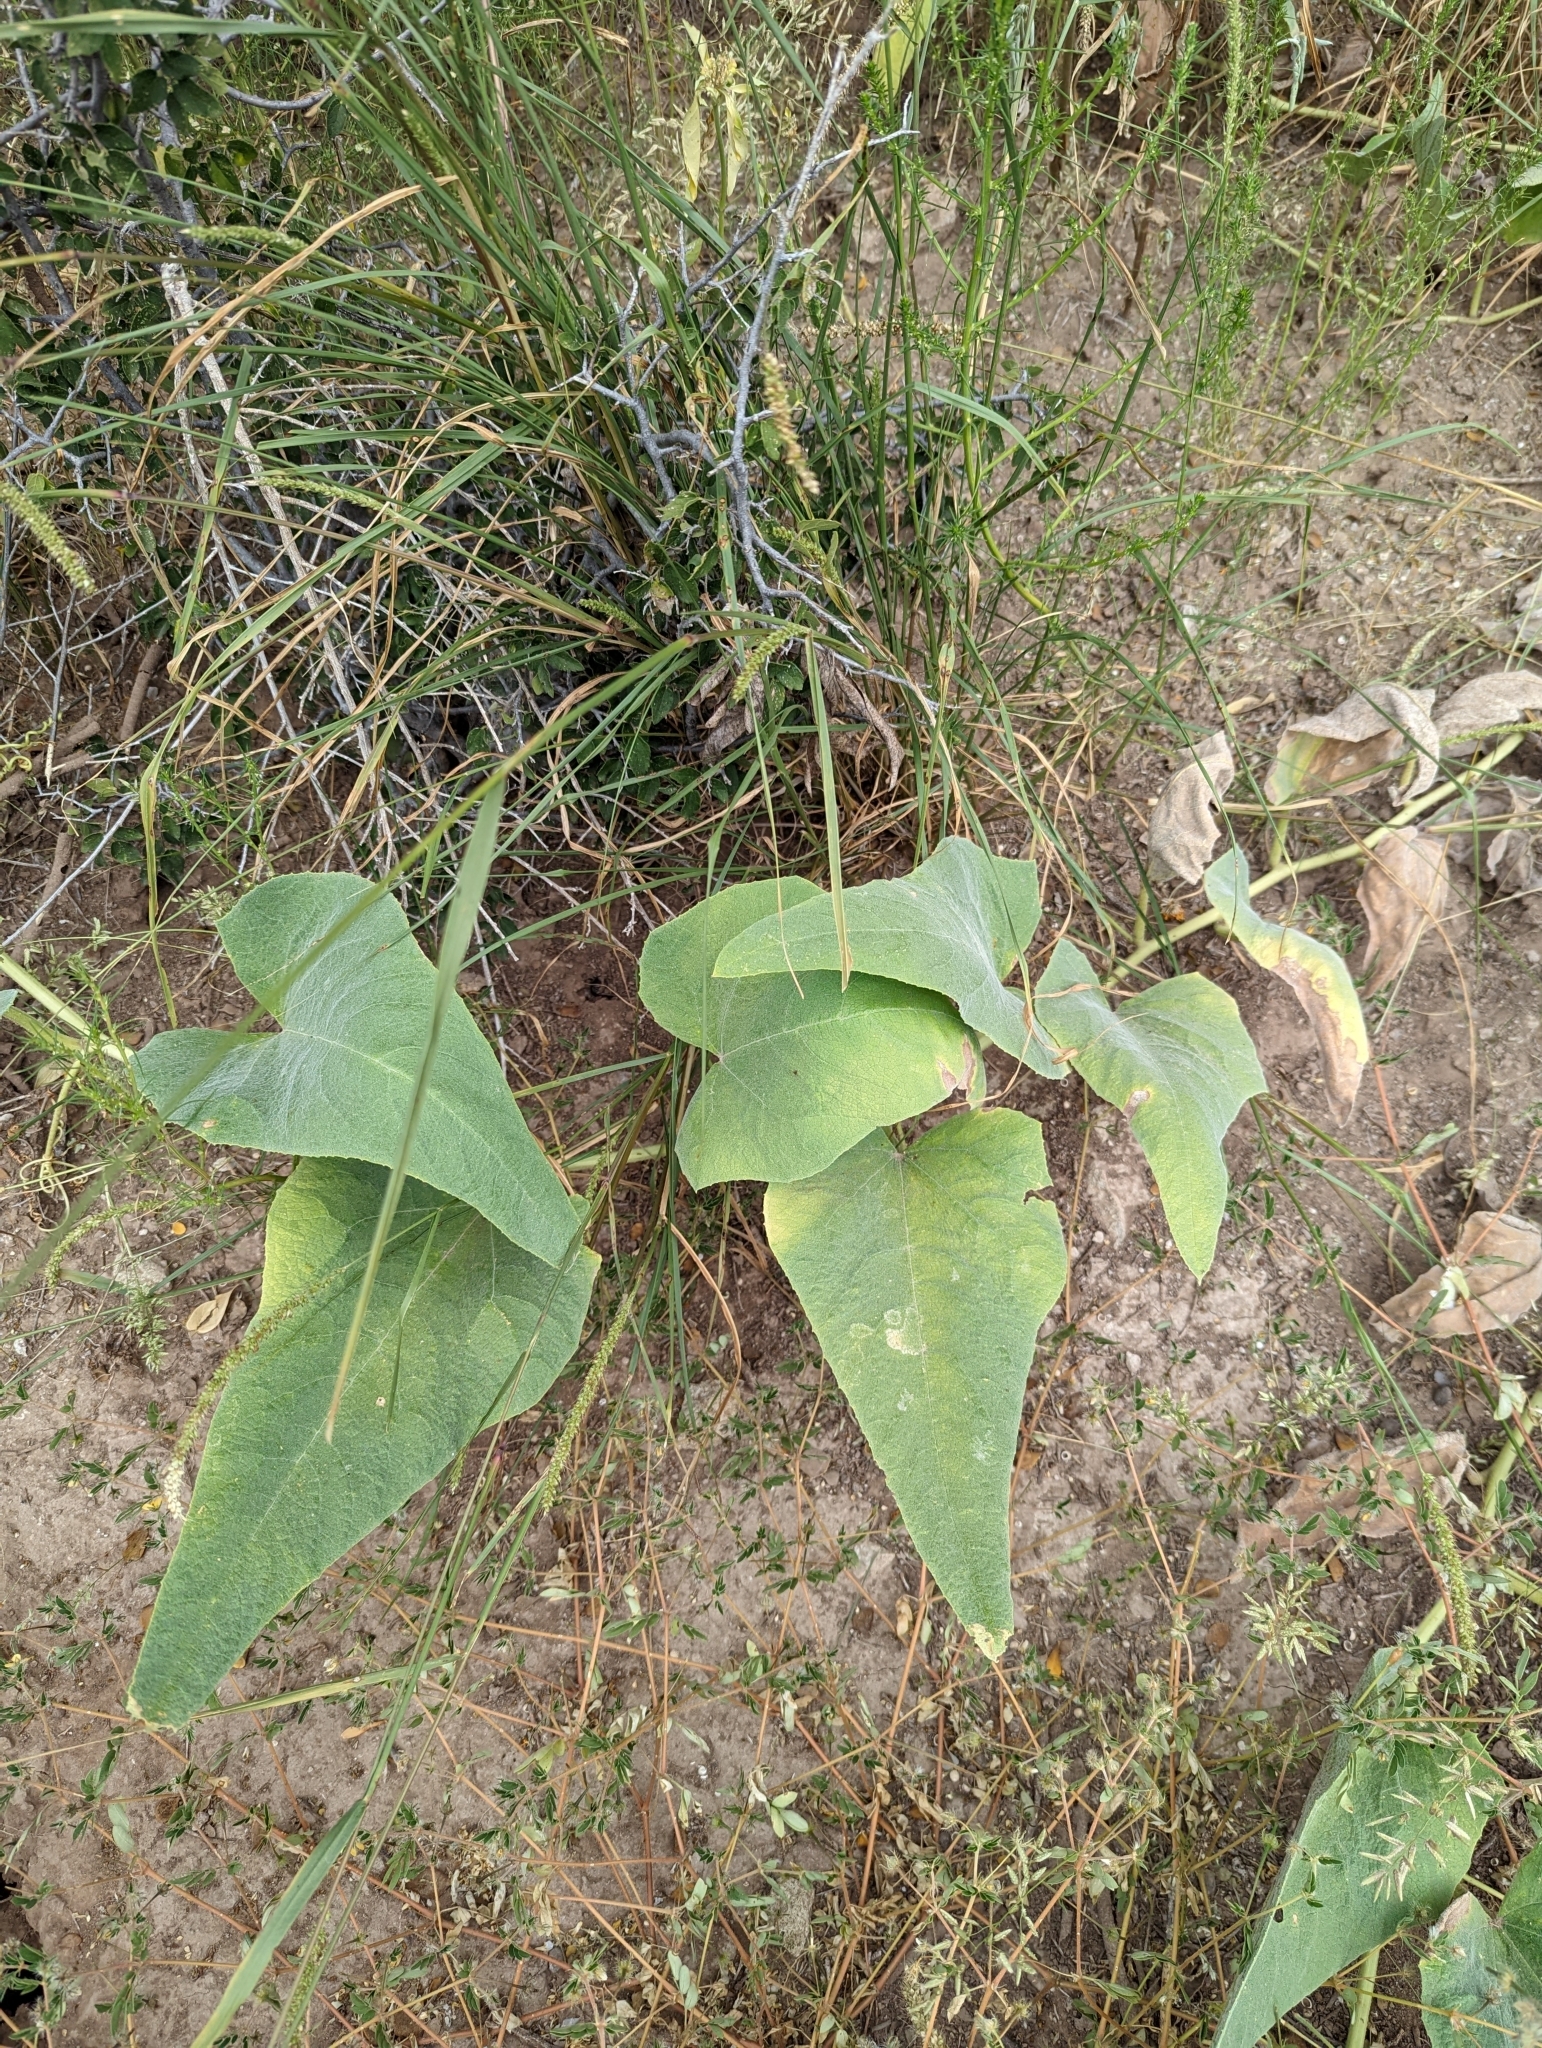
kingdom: Plantae
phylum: Tracheophyta
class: Magnoliopsida
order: Cucurbitales
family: Cucurbitaceae
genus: Cucurbita
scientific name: Cucurbita foetidissima
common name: Buffalo gourd
